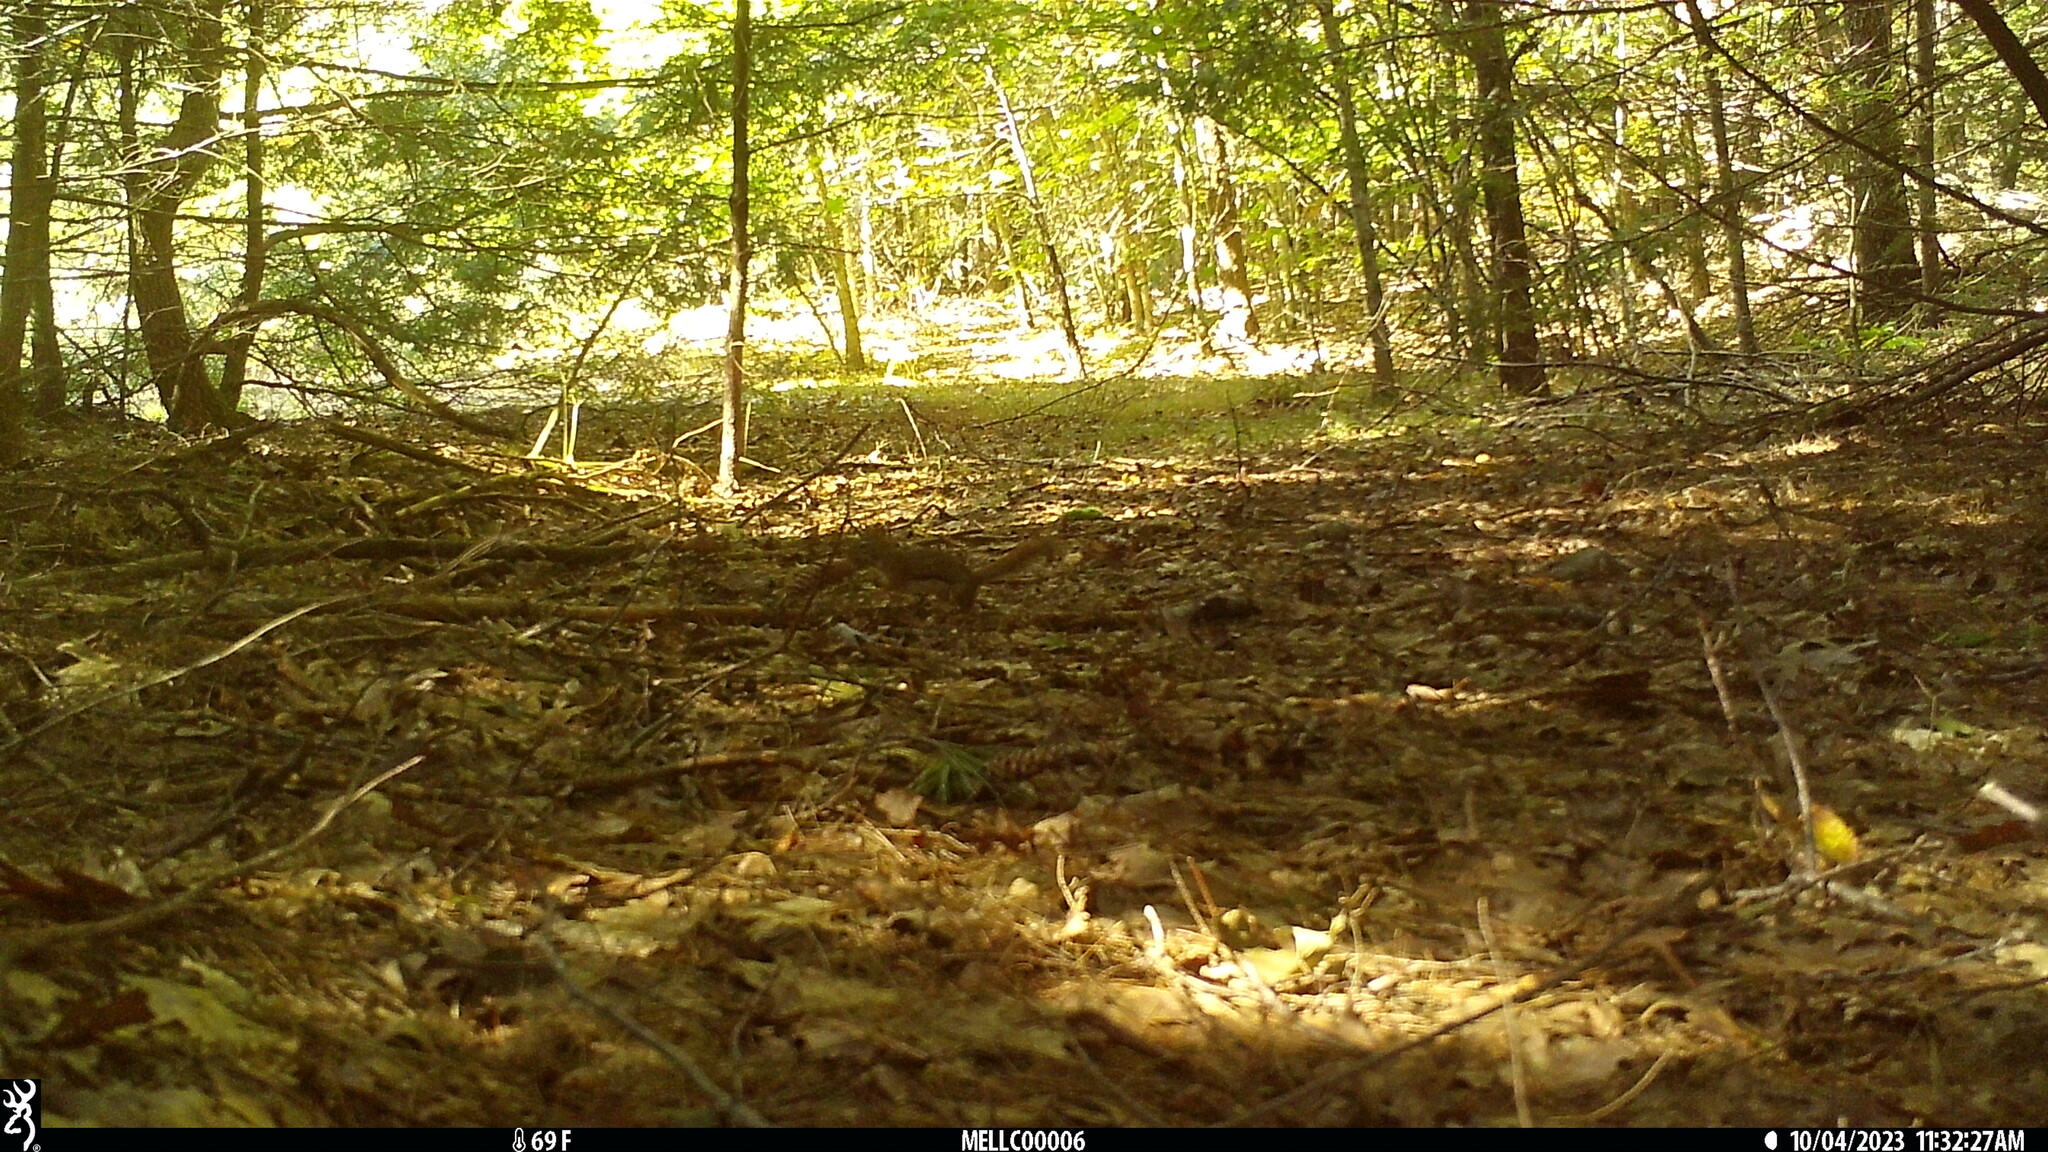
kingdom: Animalia
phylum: Chordata
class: Mammalia
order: Rodentia
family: Sciuridae
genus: Tamiasciurus
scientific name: Tamiasciurus hudsonicus
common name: Red squirrel
